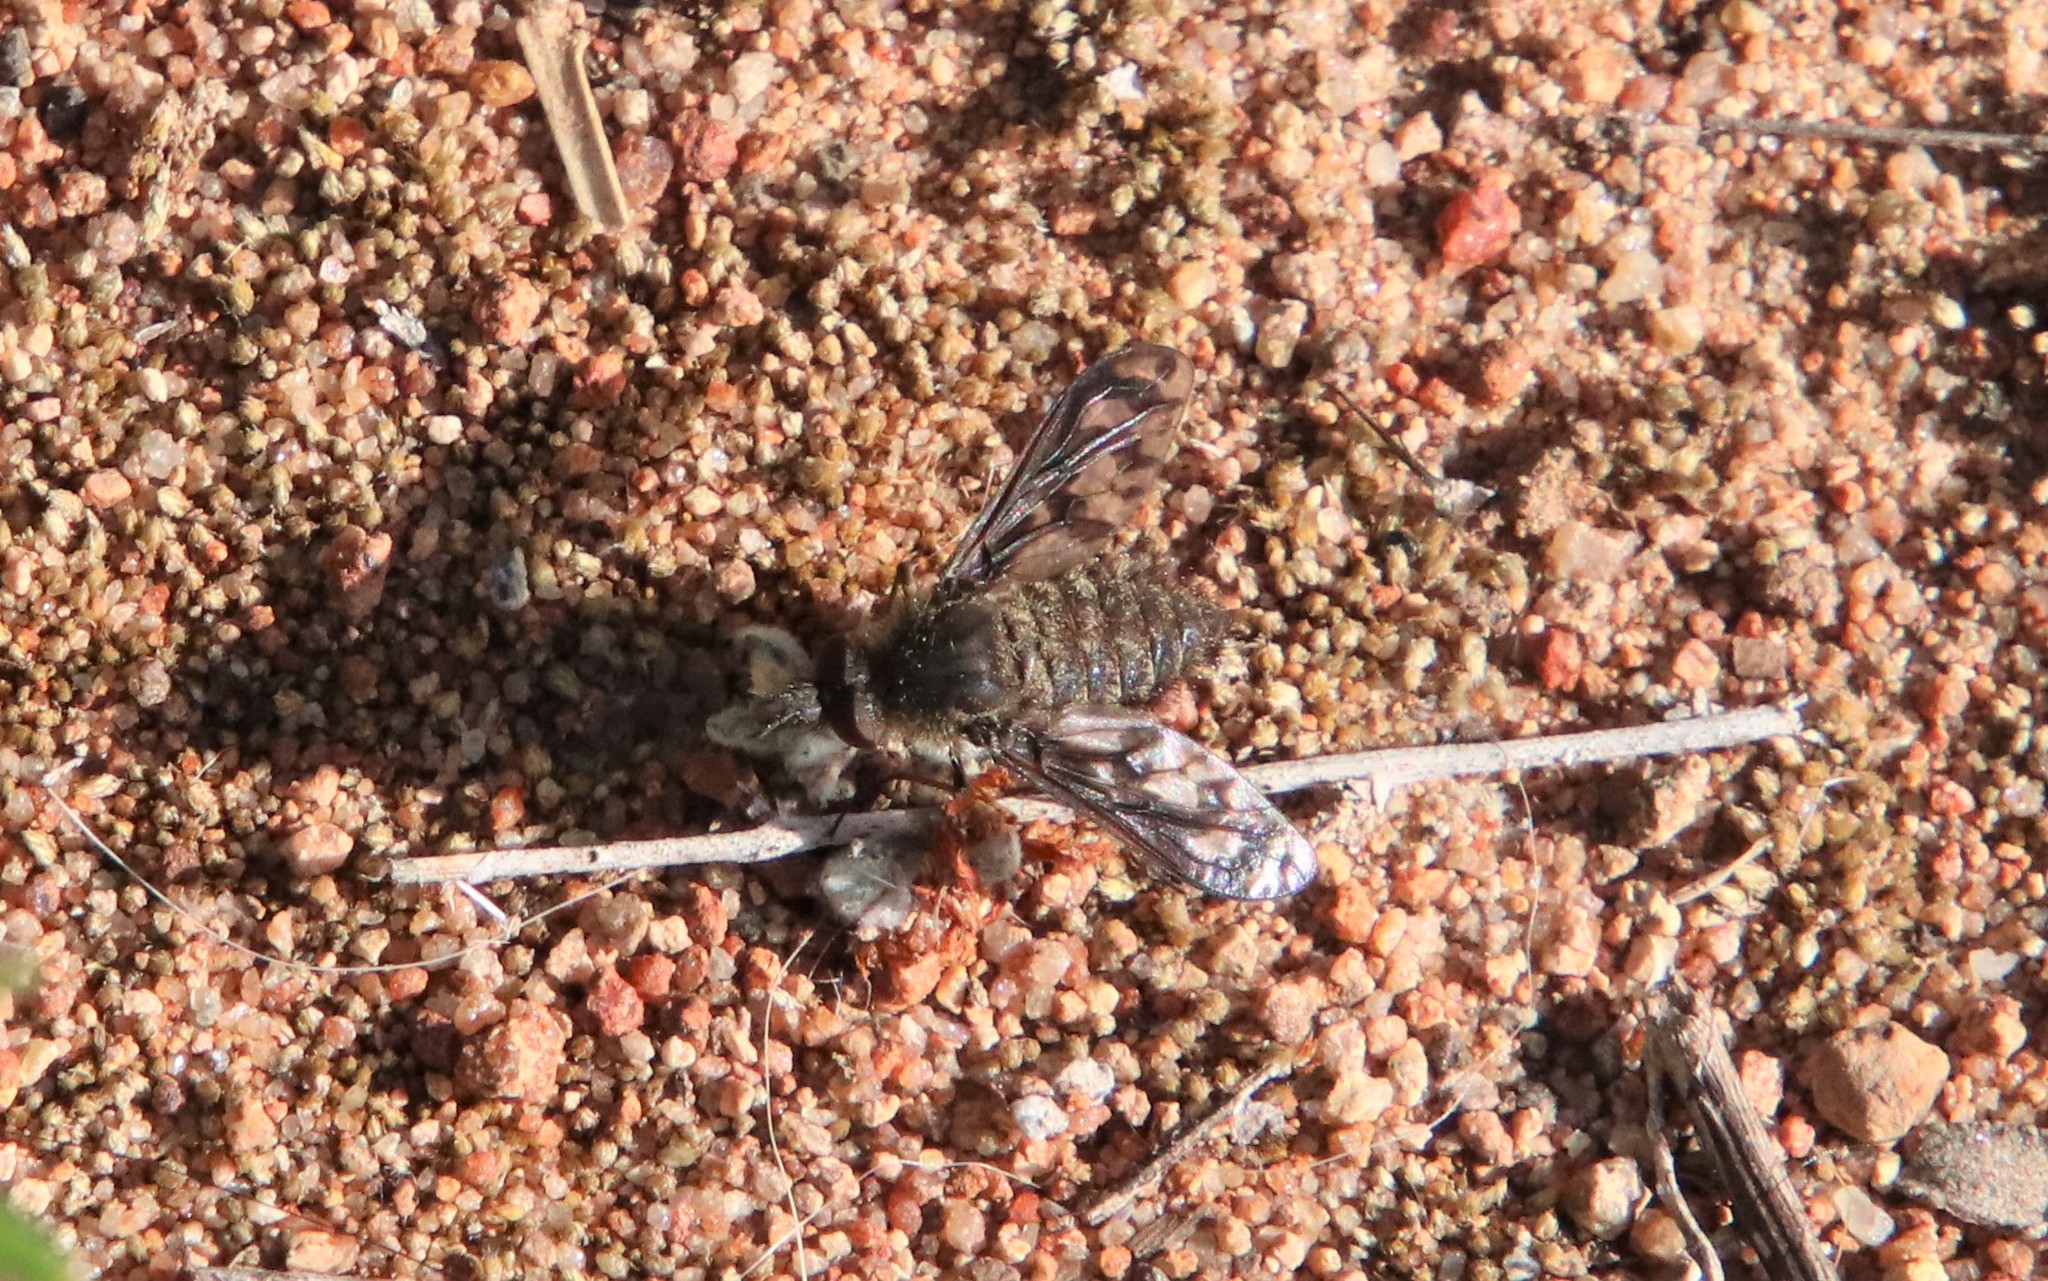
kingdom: Animalia
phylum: Arthropoda
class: Insecta
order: Diptera
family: Bombyliidae
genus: Conophorus
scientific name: Conophorus fenestratus
